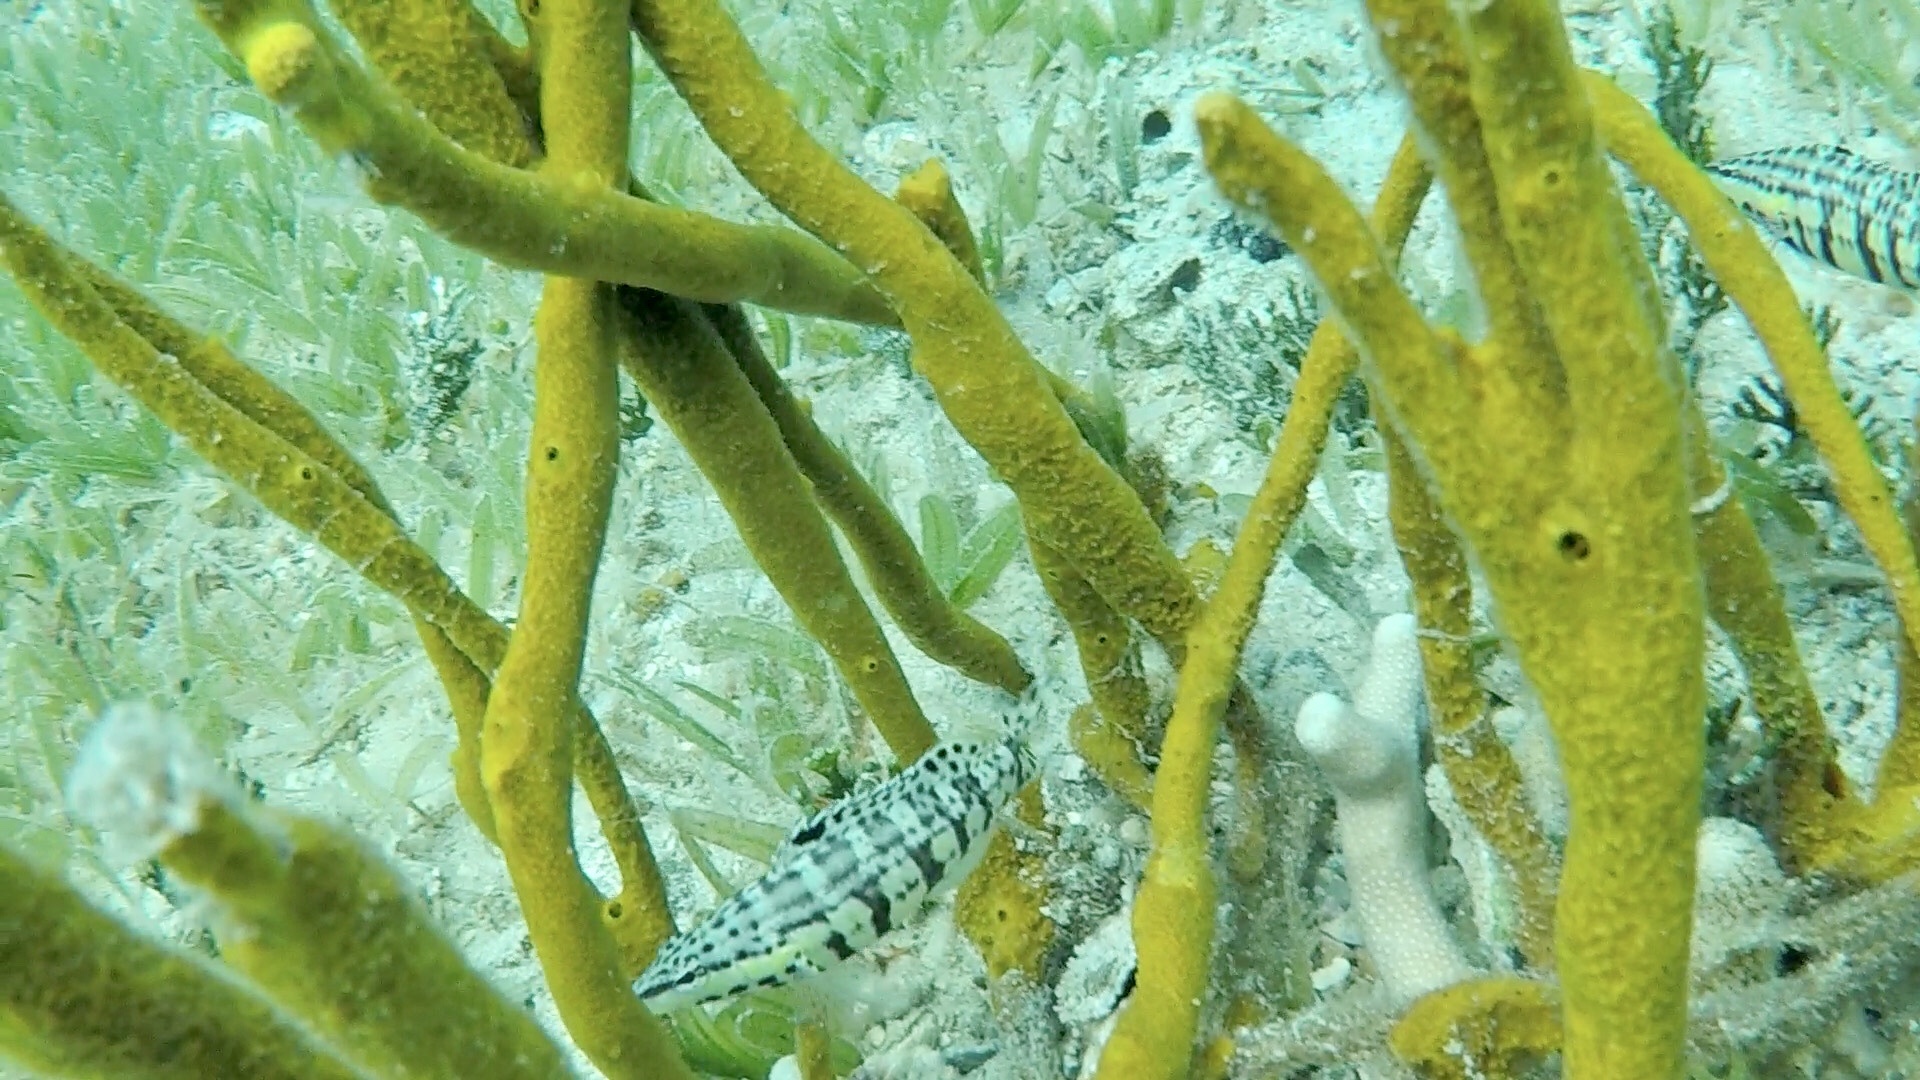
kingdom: Animalia
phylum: Chordata
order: Perciformes
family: Serranidae
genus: Serranus
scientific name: Serranus tigrinus
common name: Harlequin bass
